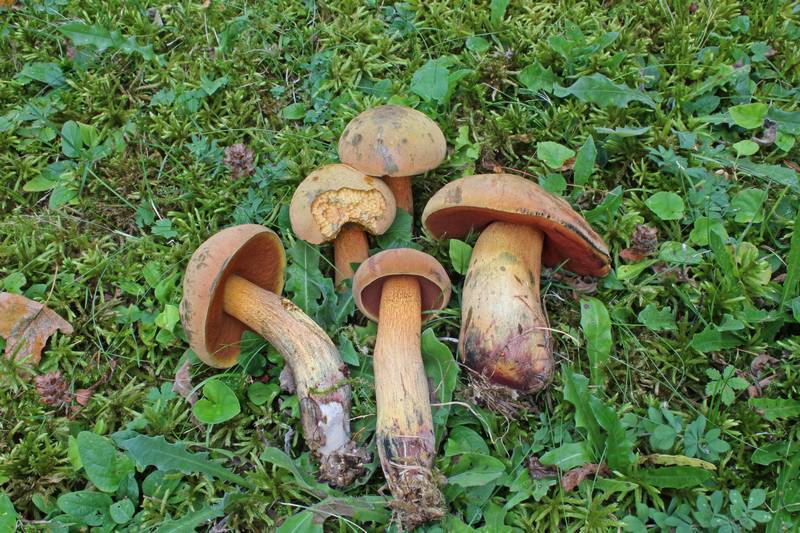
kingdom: Fungi
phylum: Basidiomycota
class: Agaricomycetes
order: Boletales
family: Boletaceae
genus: Suillellus
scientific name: Suillellus luridus
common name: Lurid bolete
